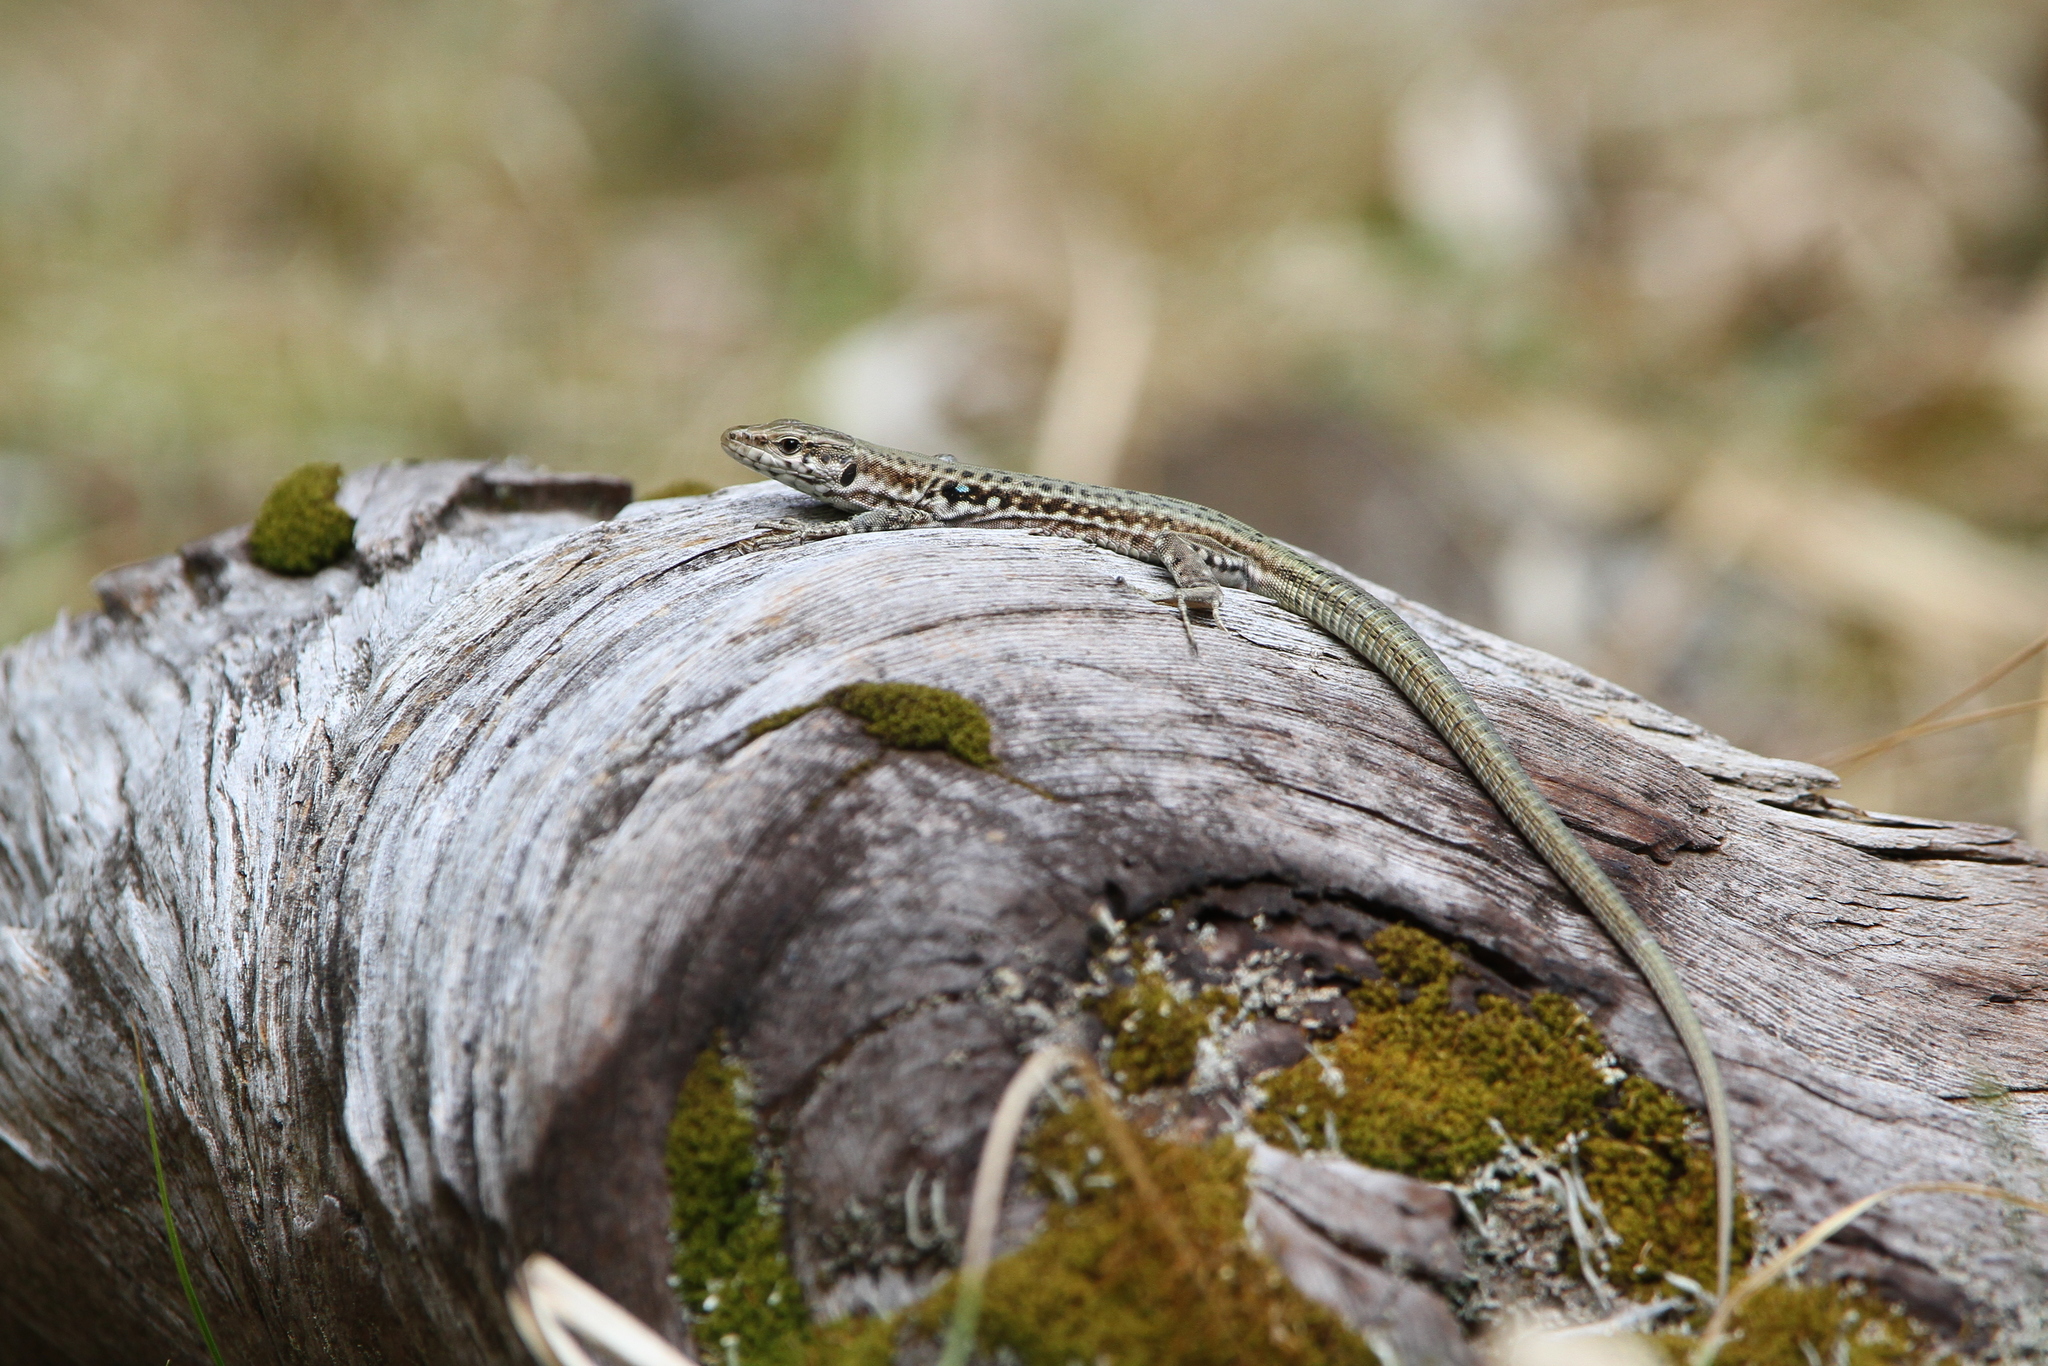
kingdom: Animalia
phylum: Chordata
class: Squamata
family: Lacertidae
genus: Podarcis
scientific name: Podarcis tiliguerta
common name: Tyrrhenian wall lizard
